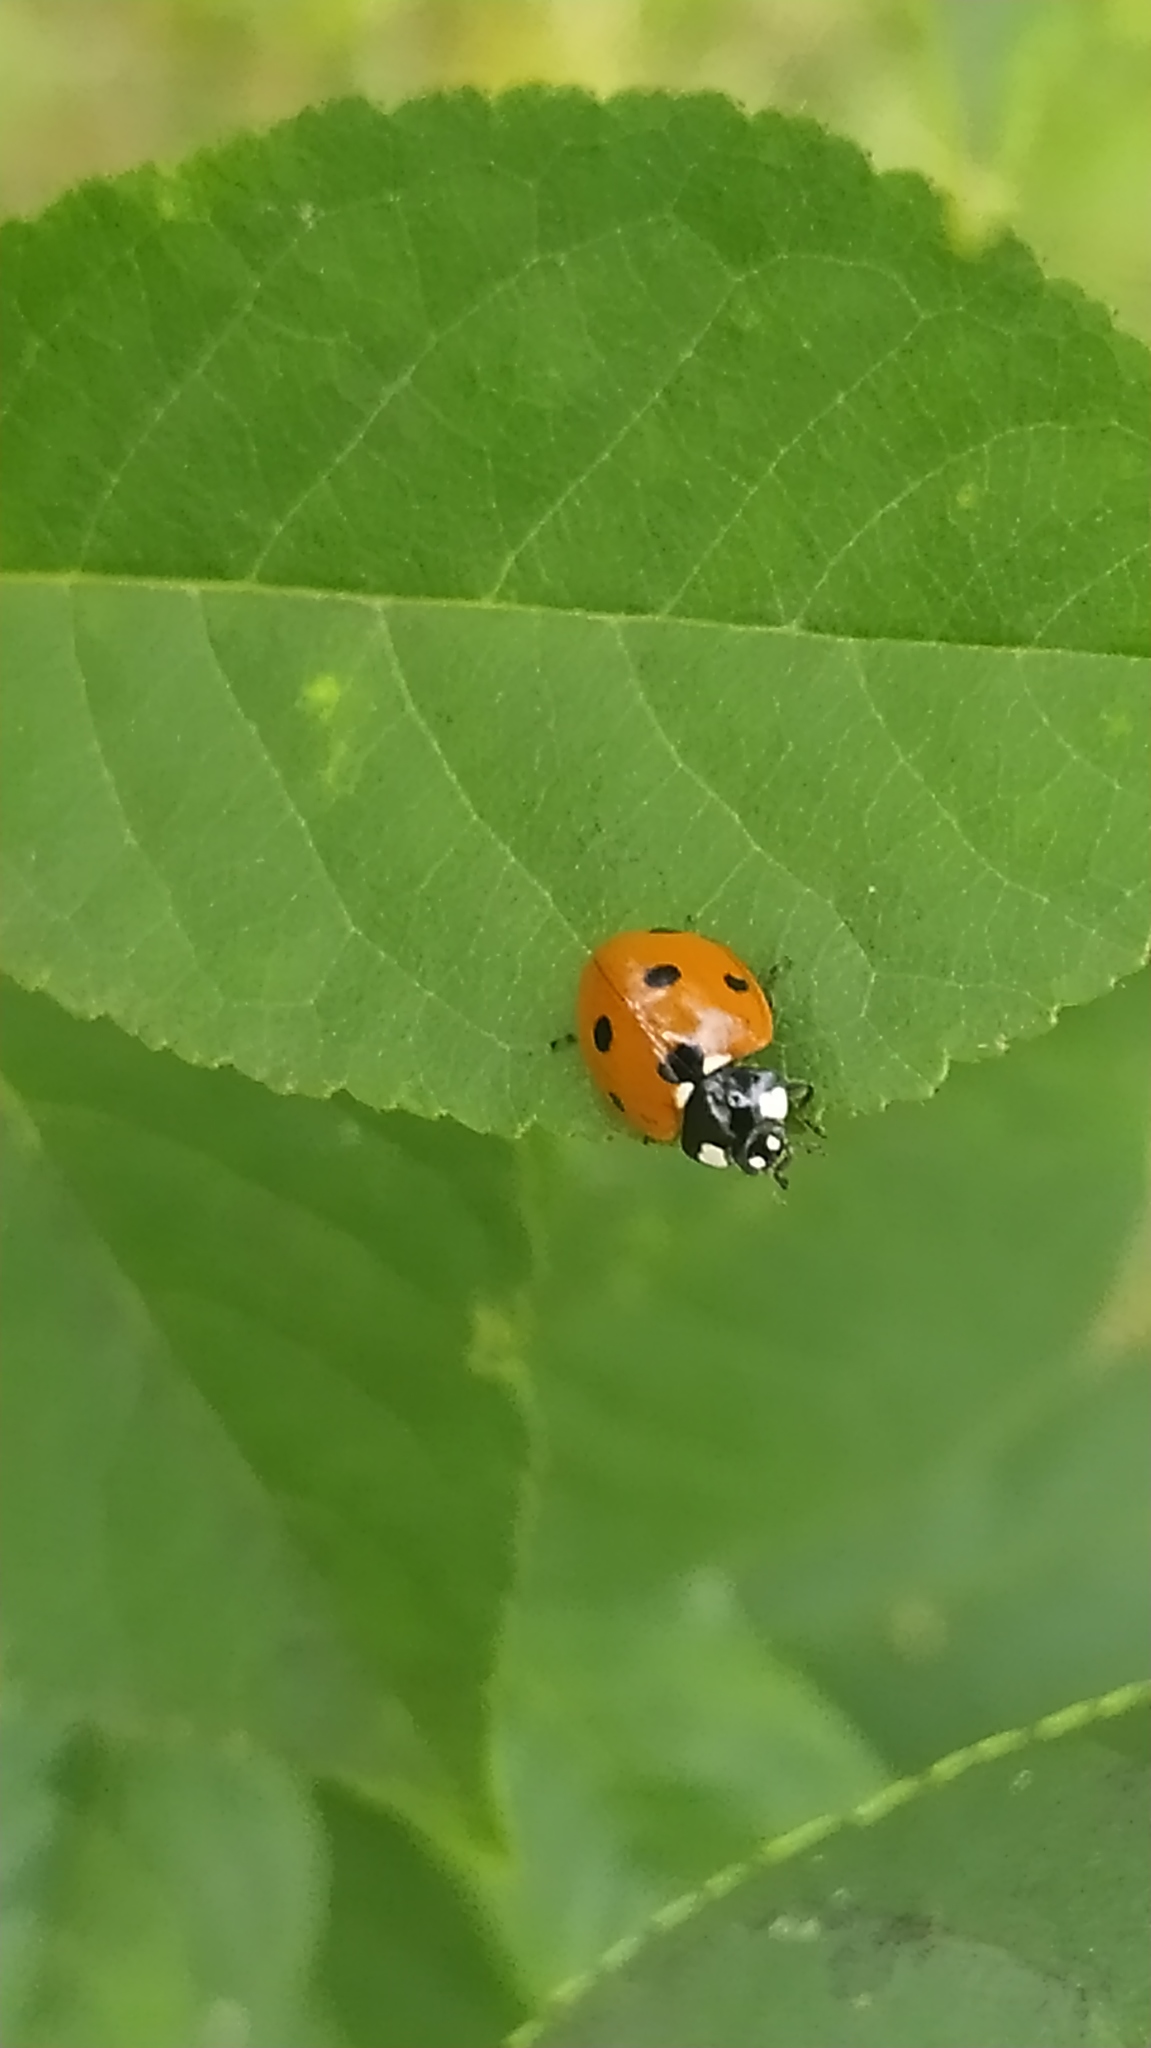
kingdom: Animalia
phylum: Arthropoda
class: Insecta
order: Coleoptera
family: Coccinellidae
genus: Coccinella
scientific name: Coccinella septempunctata
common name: Sevenspotted lady beetle
